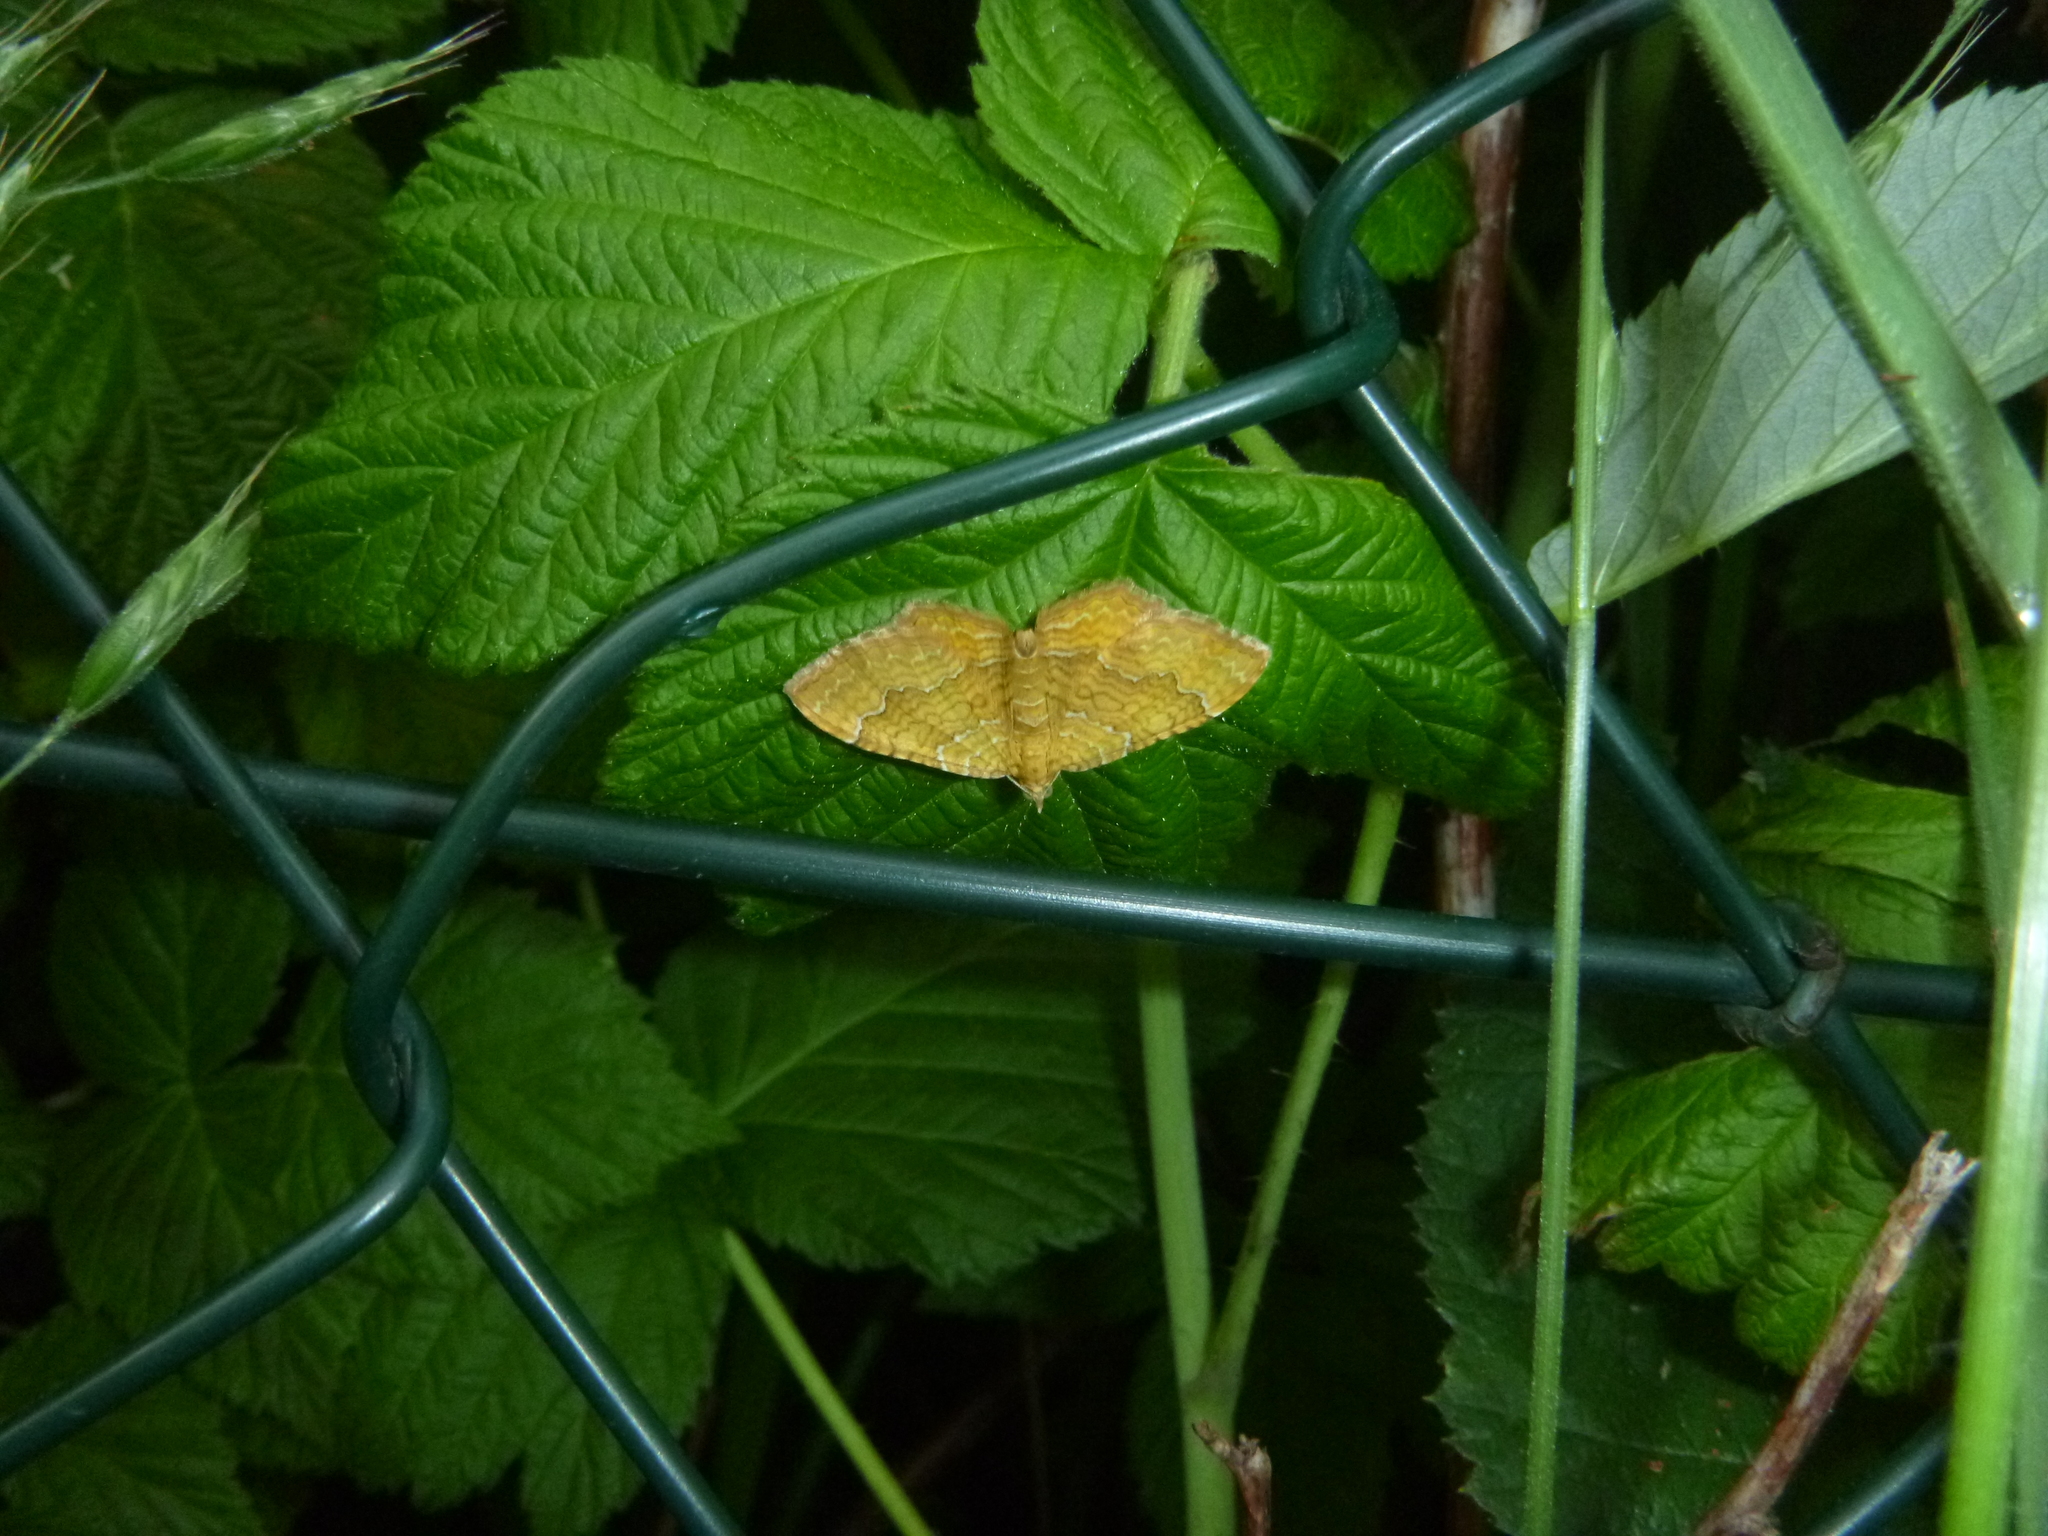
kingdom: Animalia
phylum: Arthropoda
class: Insecta
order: Lepidoptera
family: Geometridae
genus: Camptogramma
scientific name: Camptogramma bilineata
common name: Yellow shell
